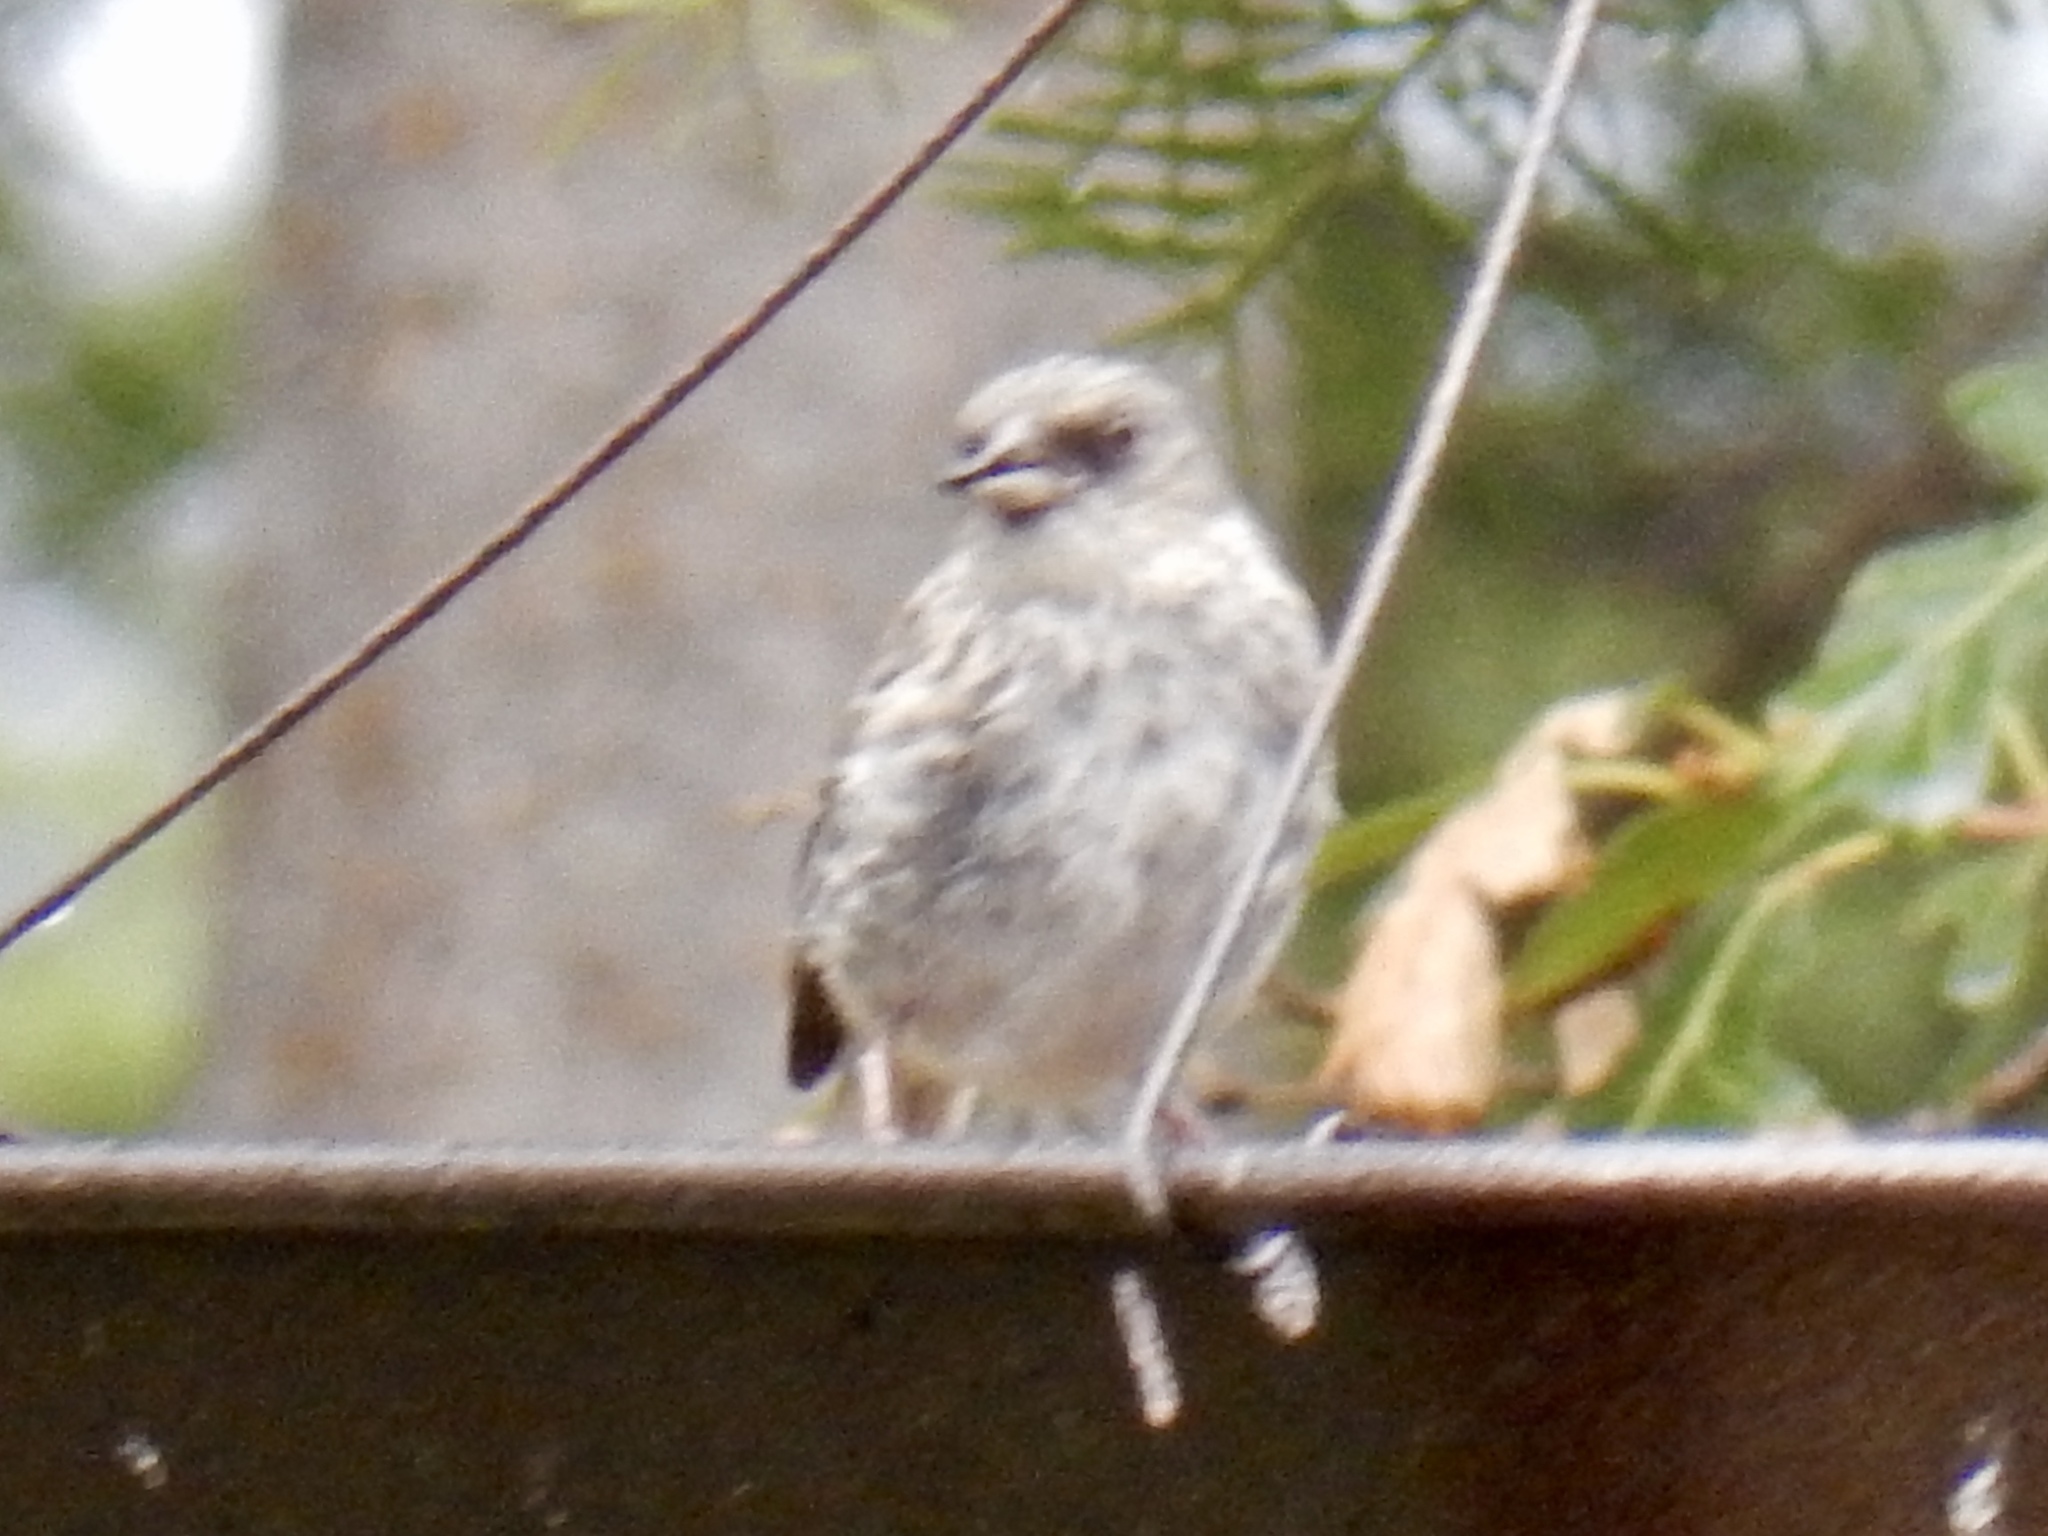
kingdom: Animalia
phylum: Chordata
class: Aves
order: Passeriformes
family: Passerellidae
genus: Junco
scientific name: Junco hyemalis
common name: Dark-eyed junco
